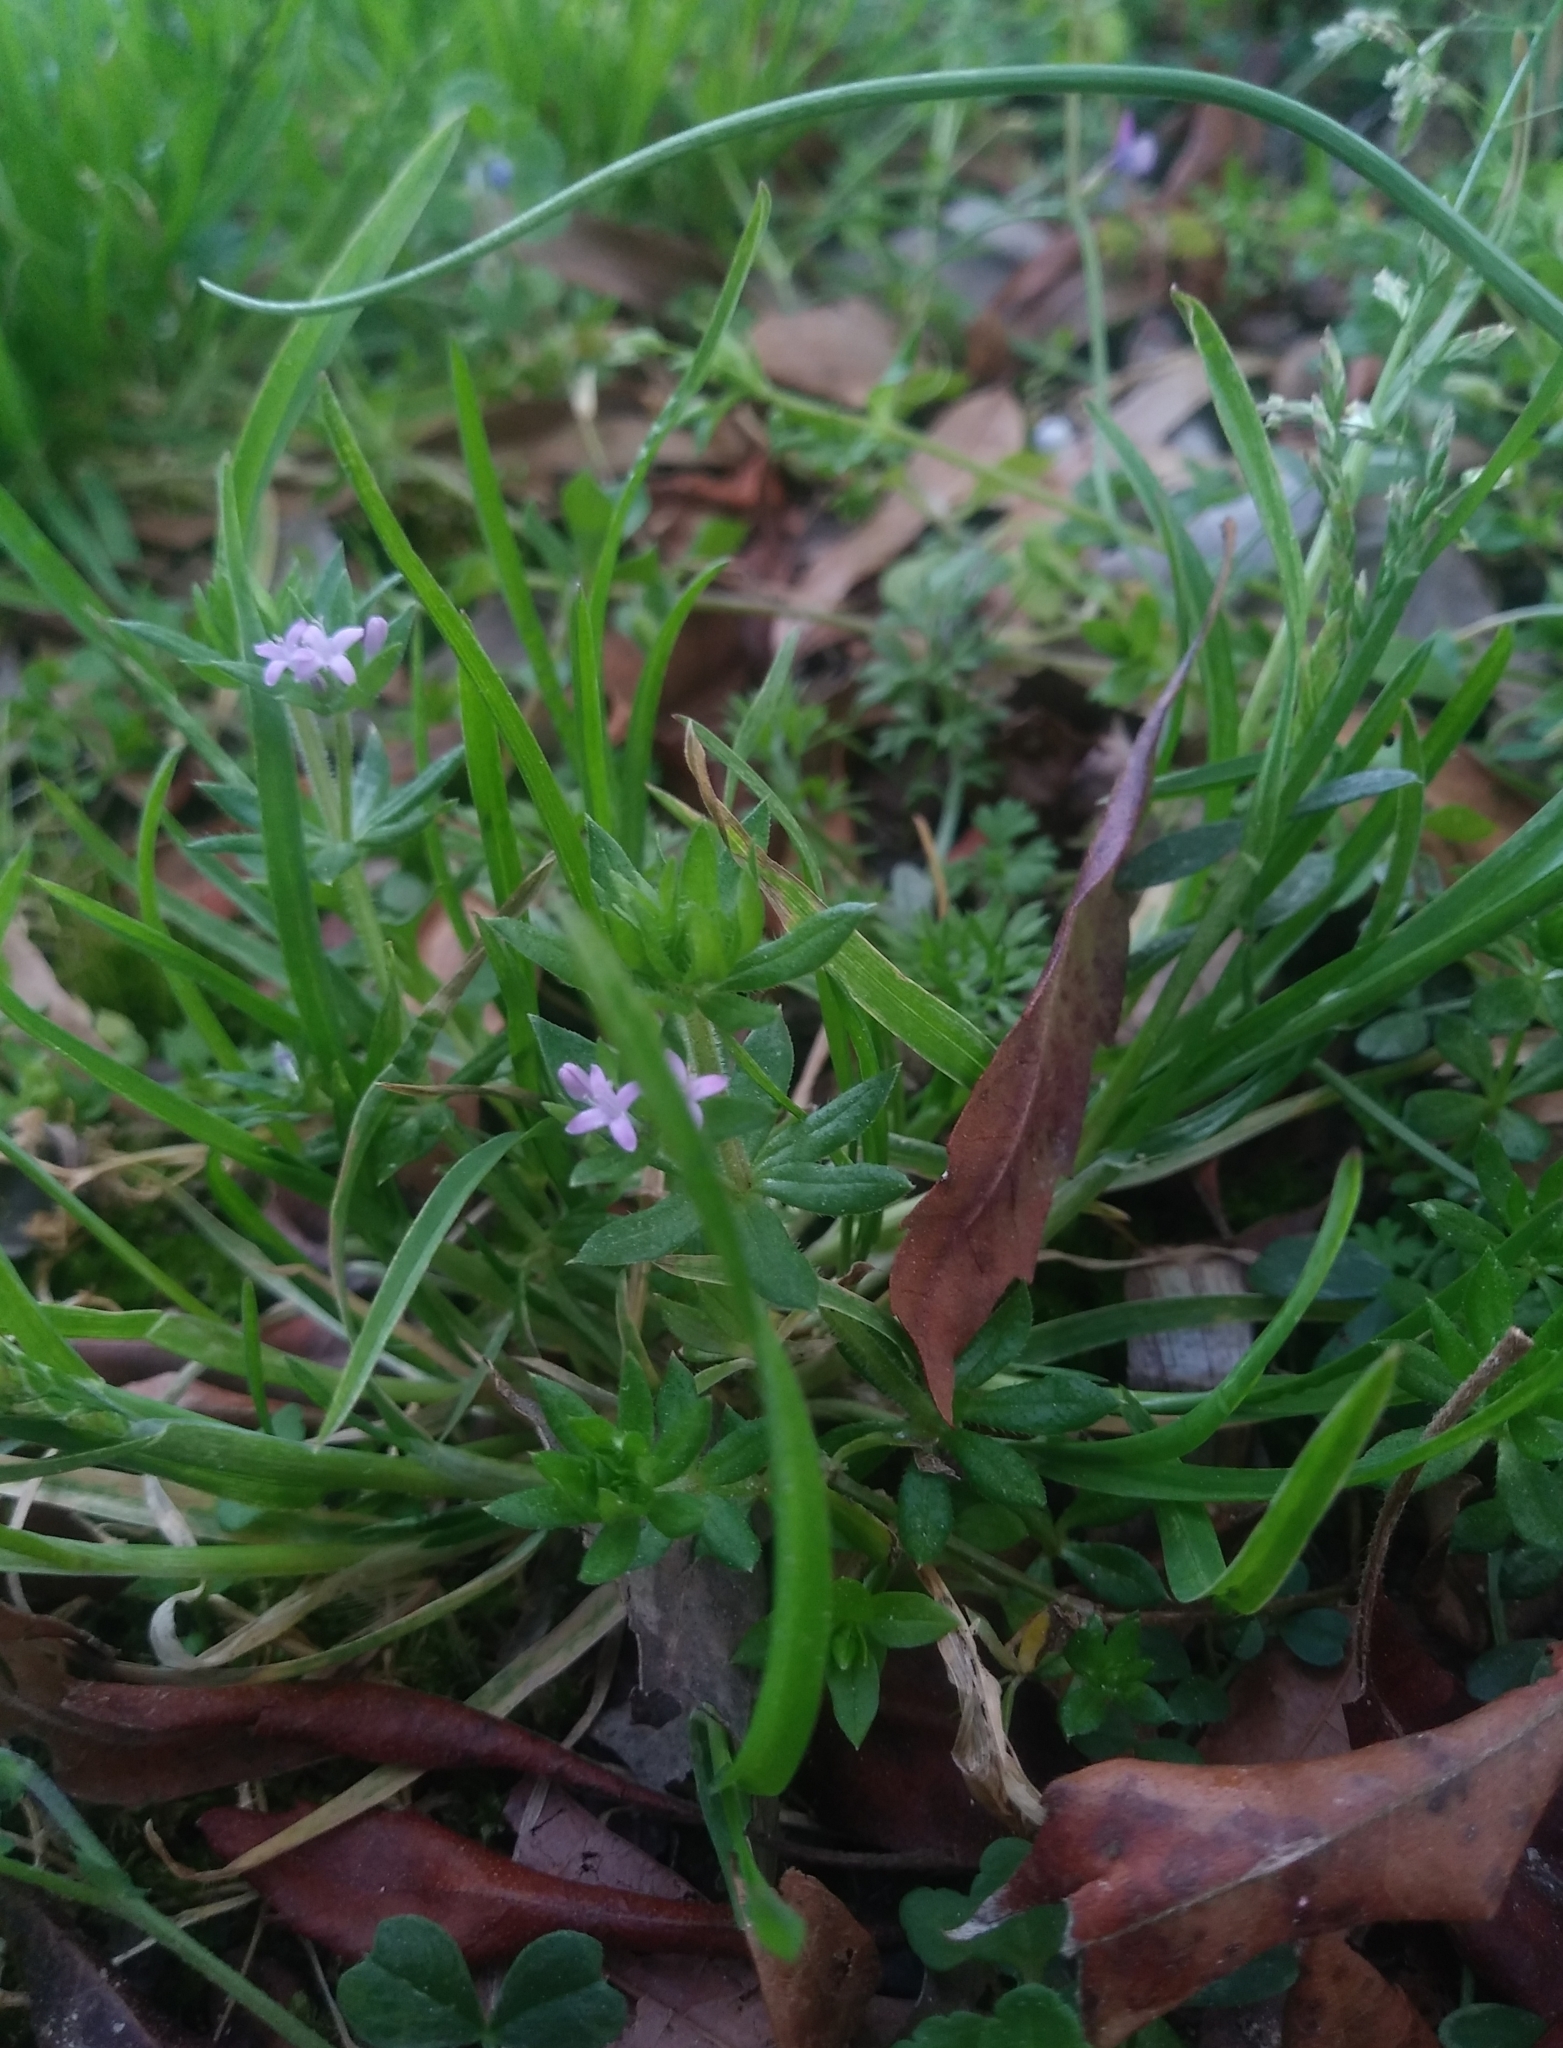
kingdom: Plantae
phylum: Tracheophyta
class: Magnoliopsida
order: Gentianales
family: Rubiaceae
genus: Sherardia
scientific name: Sherardia arvensis
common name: Field madder
